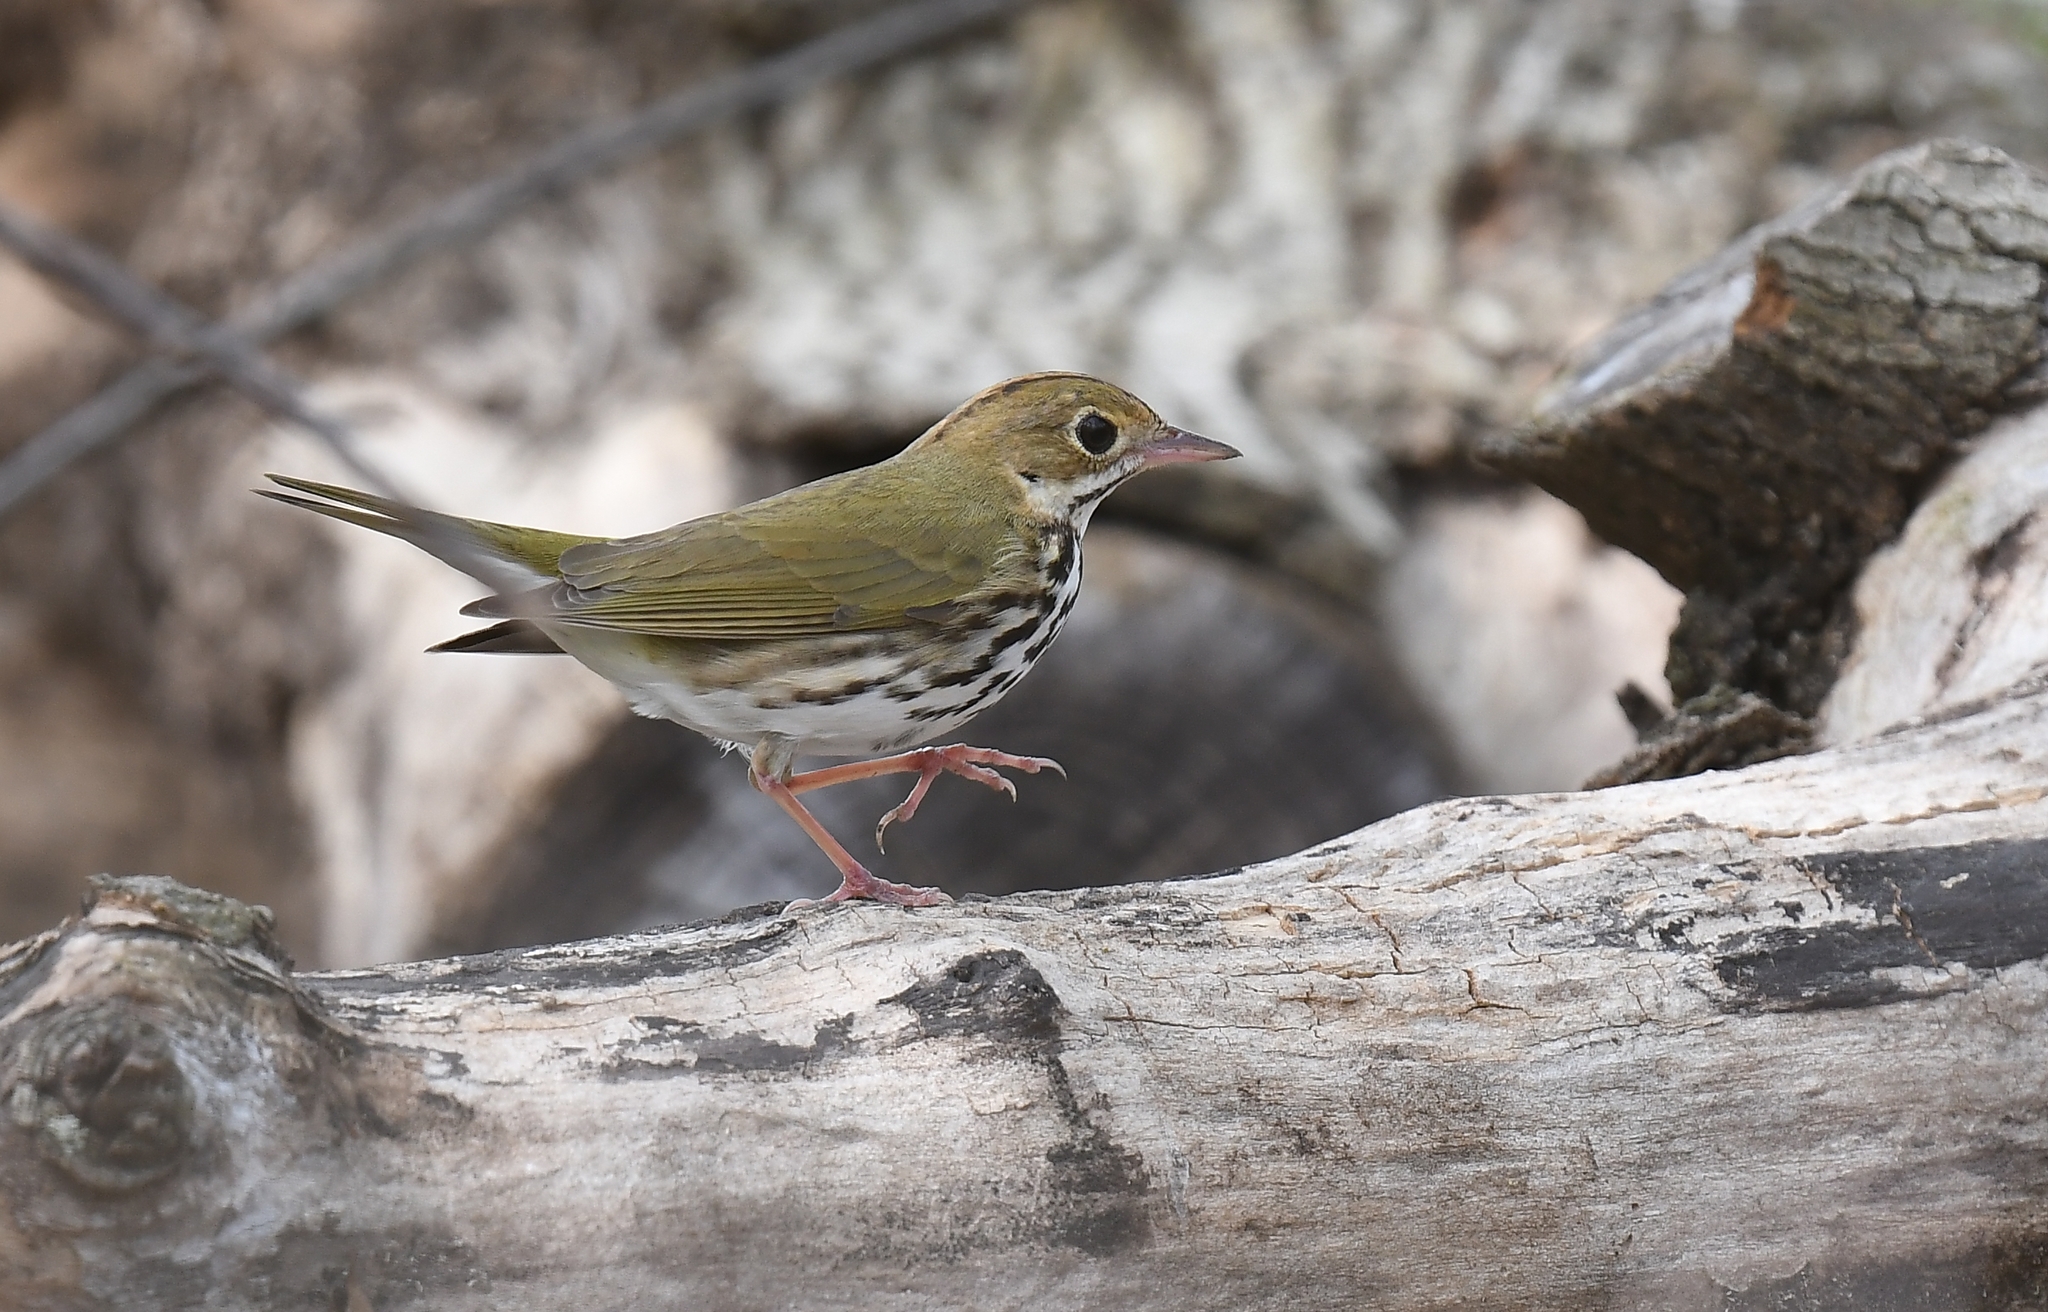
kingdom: Animalia
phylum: Chordata
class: Aves
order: Passeriformes
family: Parulidae
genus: Seiurus
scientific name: Seiurus aurocapilla
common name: Ovenbird
